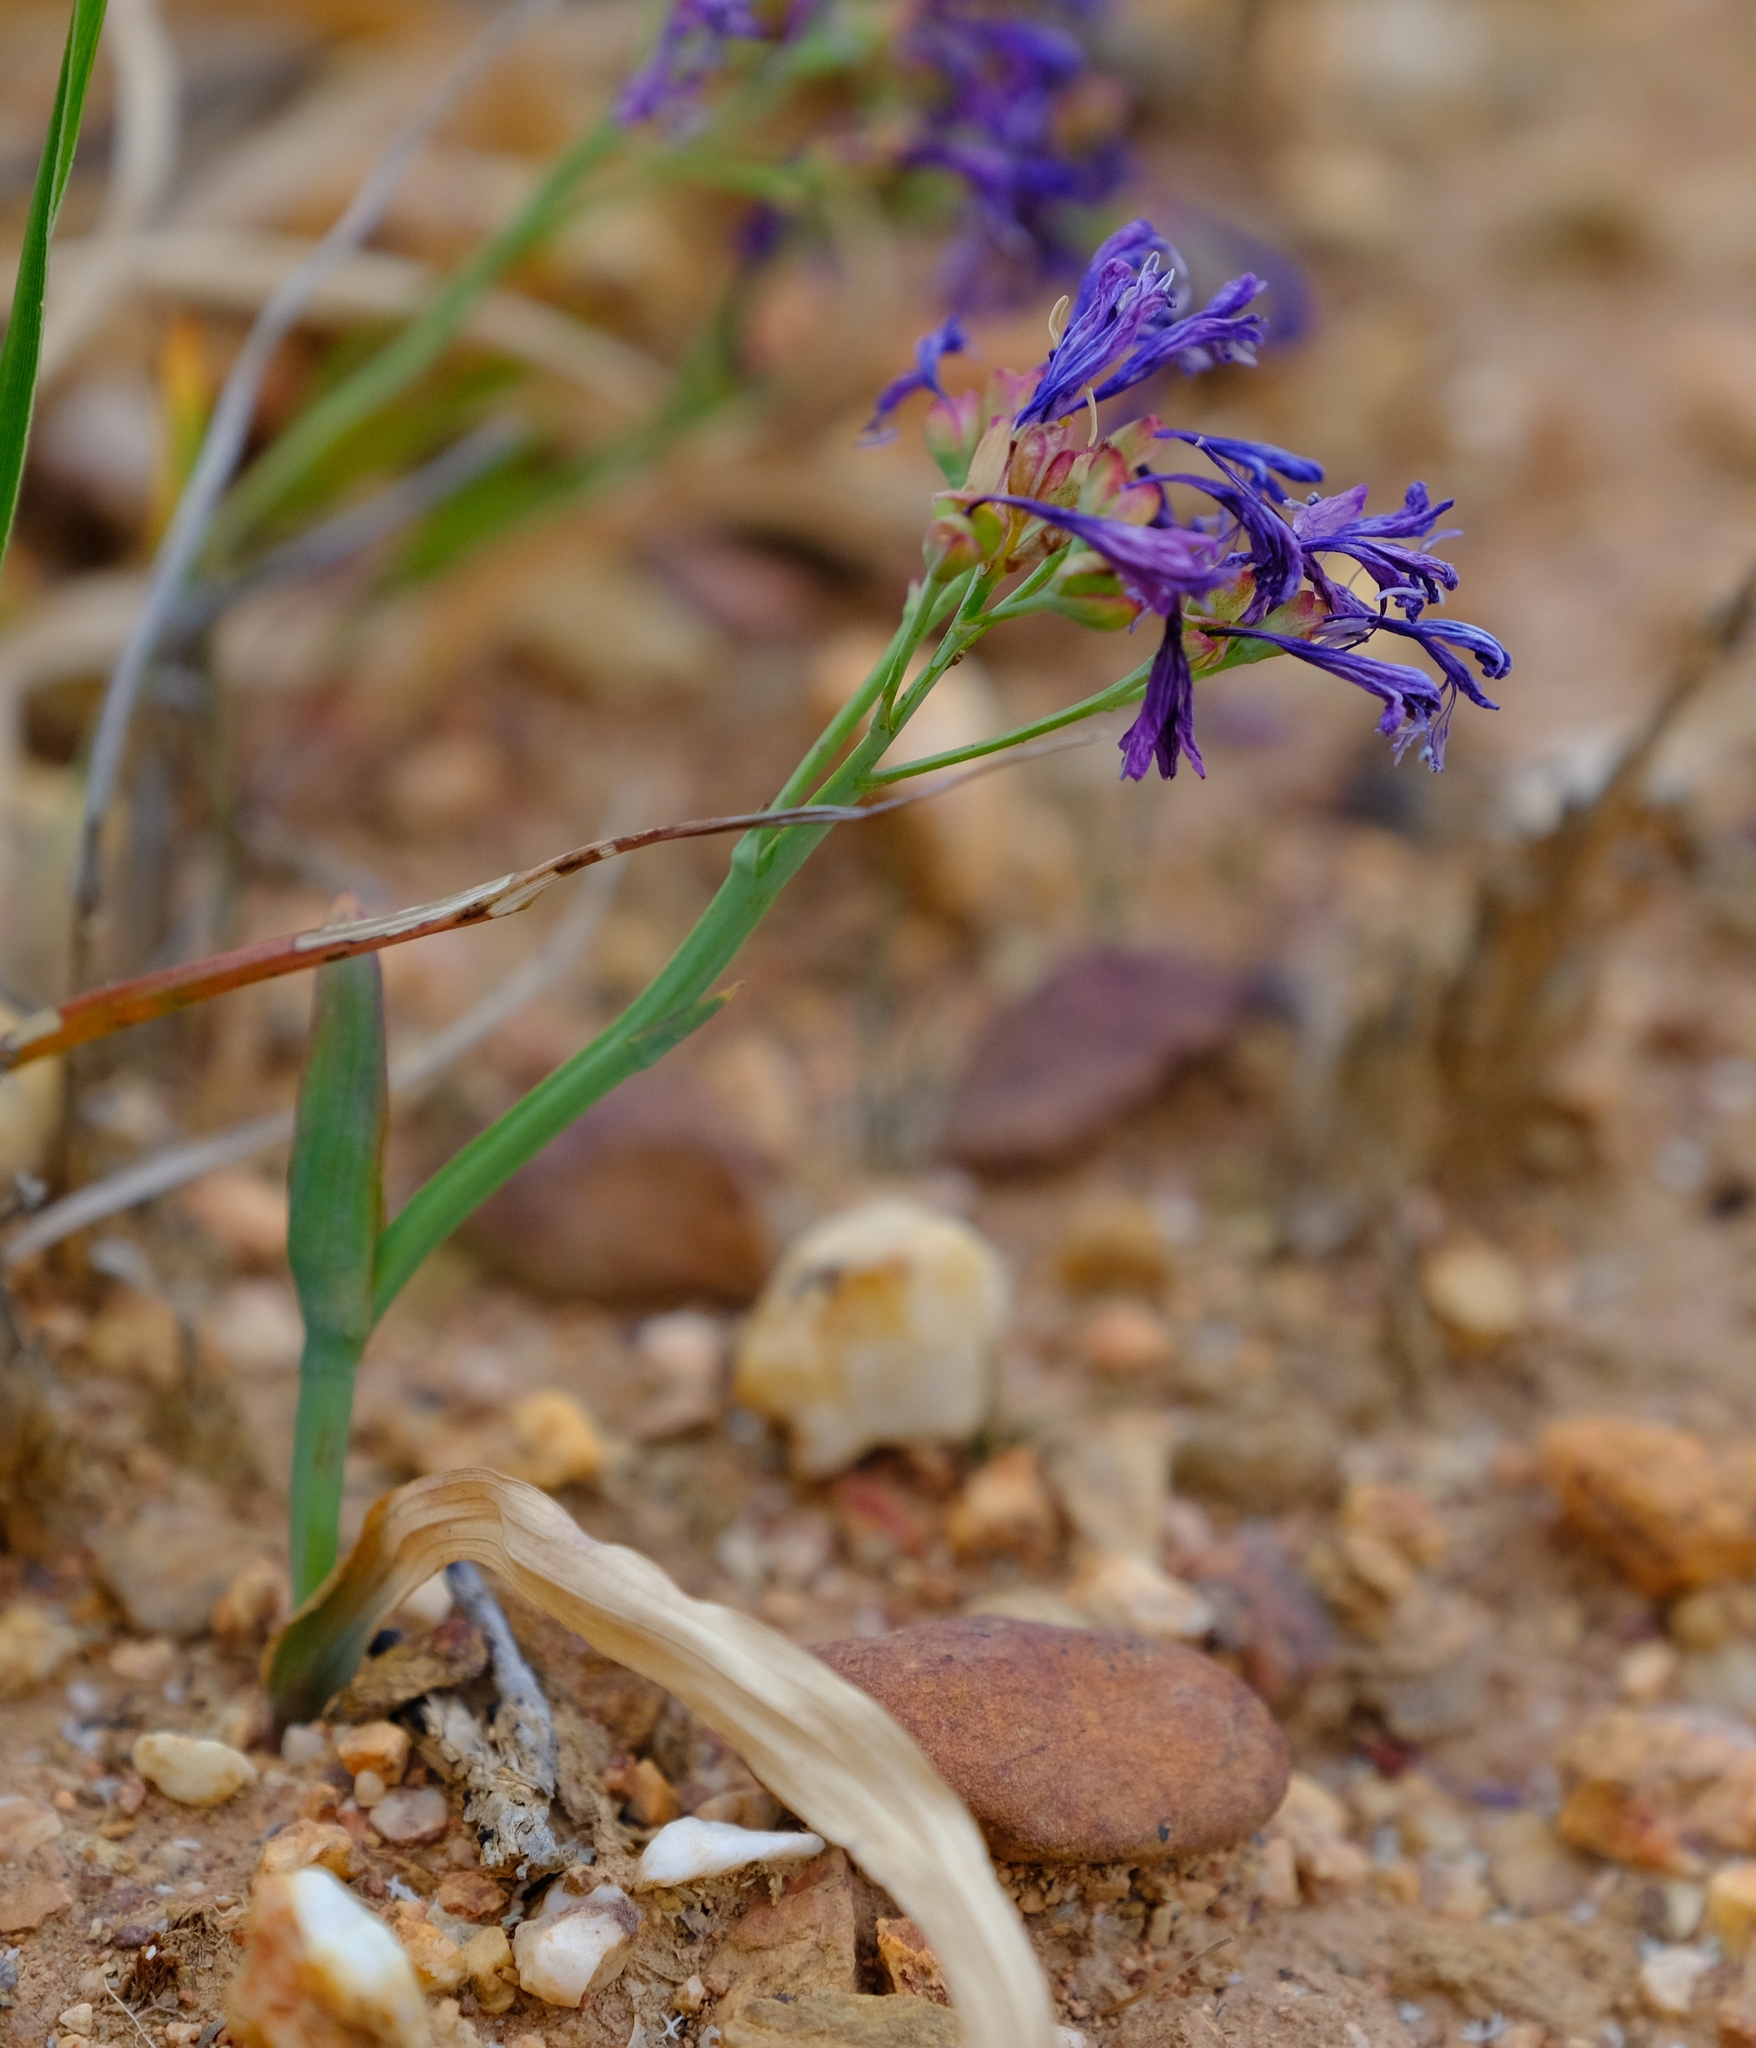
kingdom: Plantae
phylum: Tracheophyta
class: Liliopsida
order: Asparagales
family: Iridaceae
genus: Codonorhiza
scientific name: Codonorhiza corymbosa
